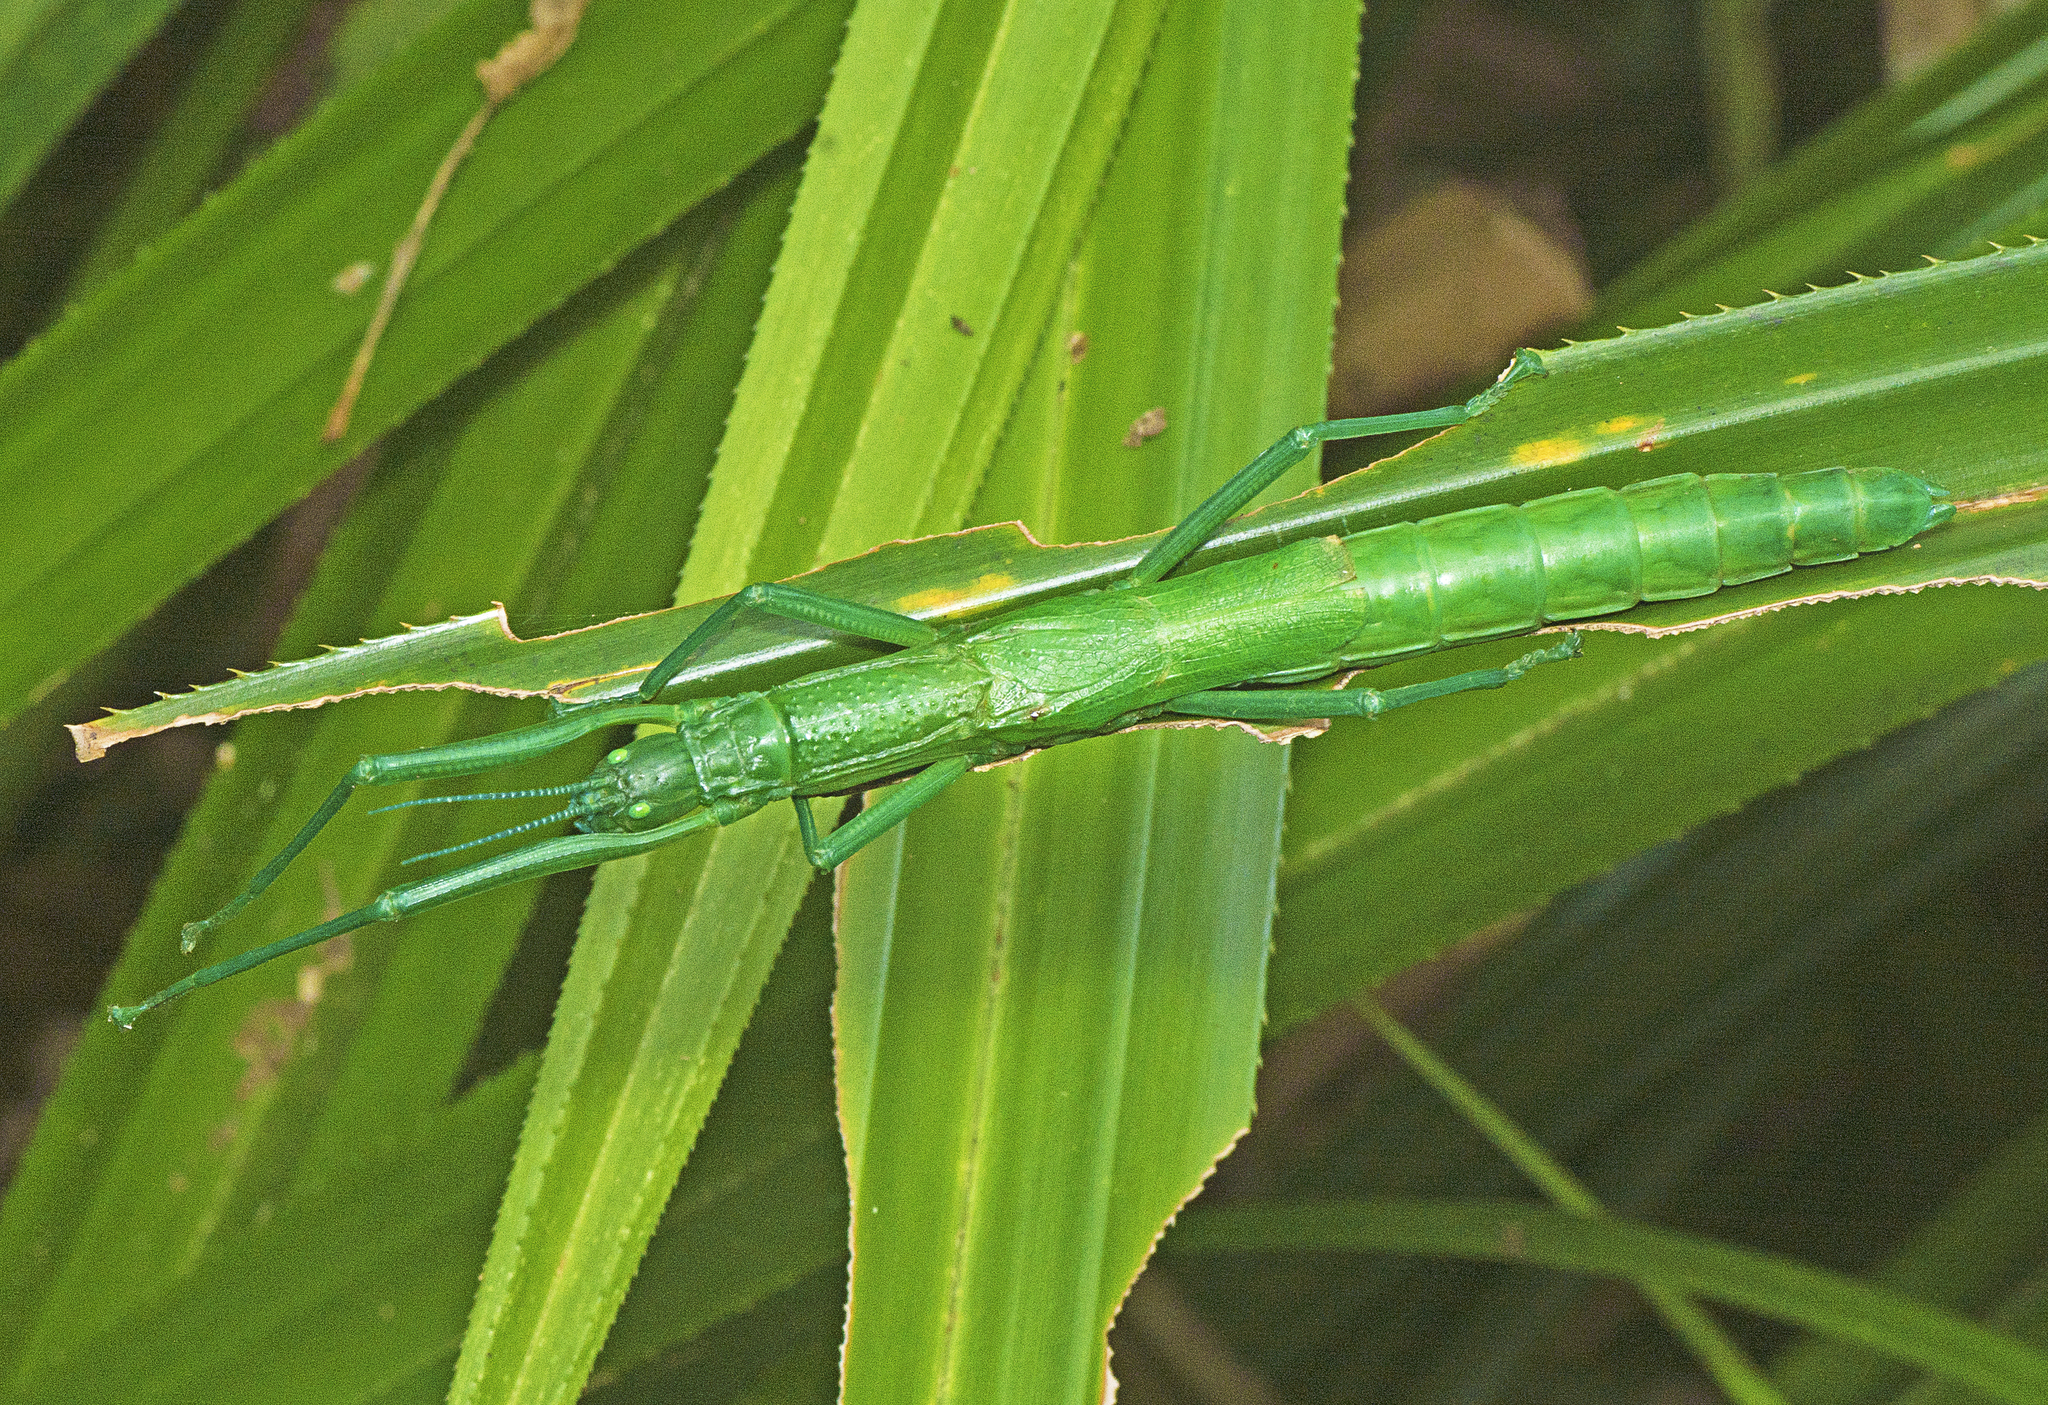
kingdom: Animalia
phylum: Arthropoda
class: Insecta
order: Phasmida
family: Phasmatidae
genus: Megacrania
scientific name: Megacrania batesii
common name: Peppermint stick-insect
